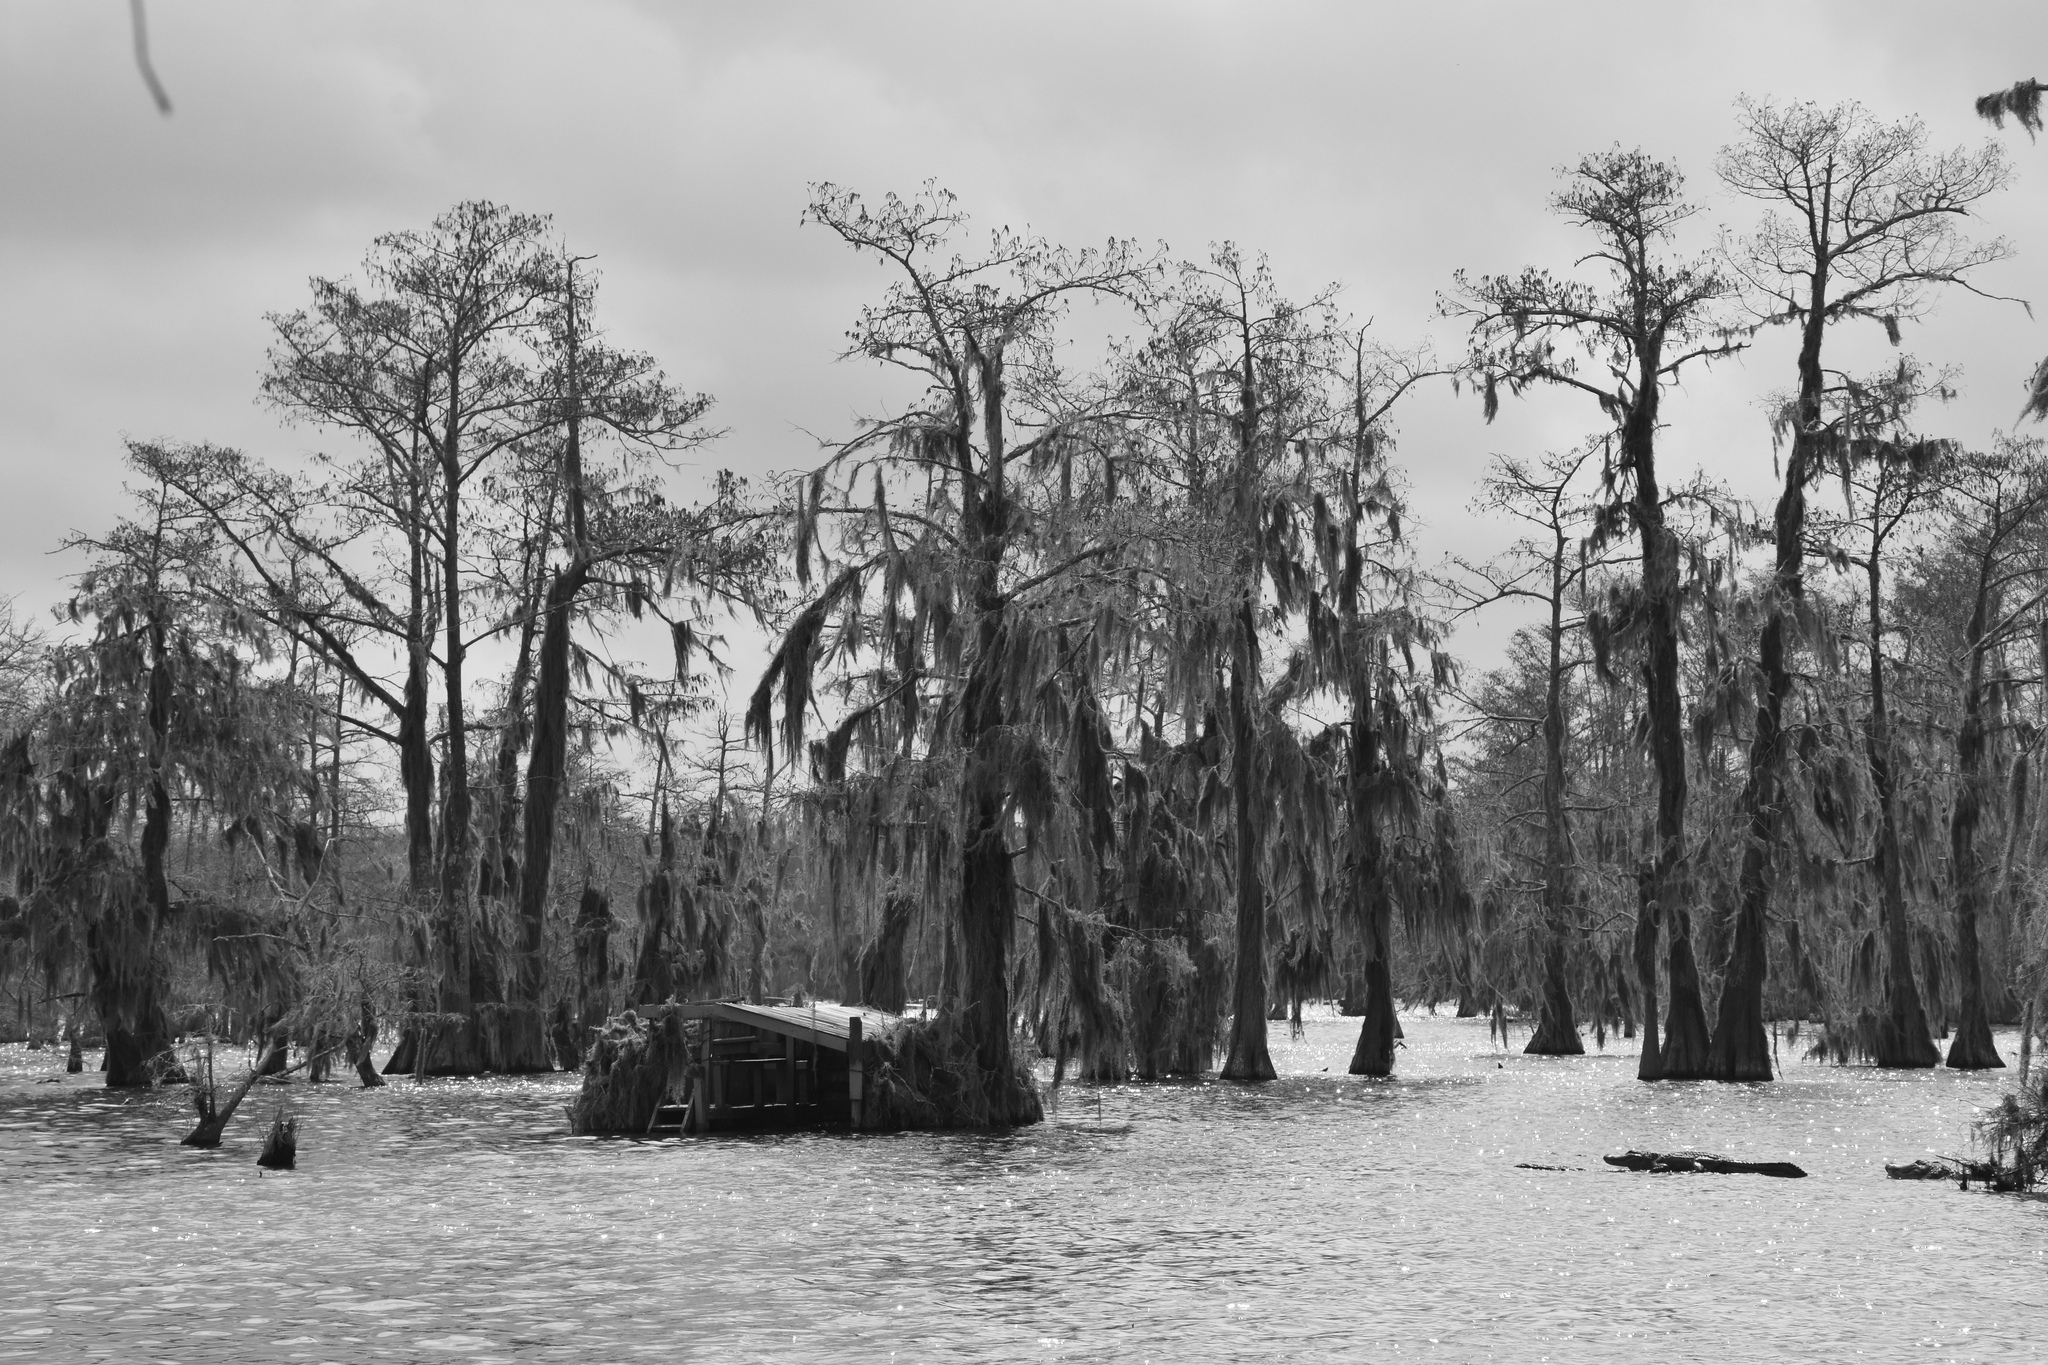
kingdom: Plantae
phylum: Tracheophyta
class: Pinopsida
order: Pinales
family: Cupressaceae
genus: Taxodium
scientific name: Taxodium distichum
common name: Bald cypress
